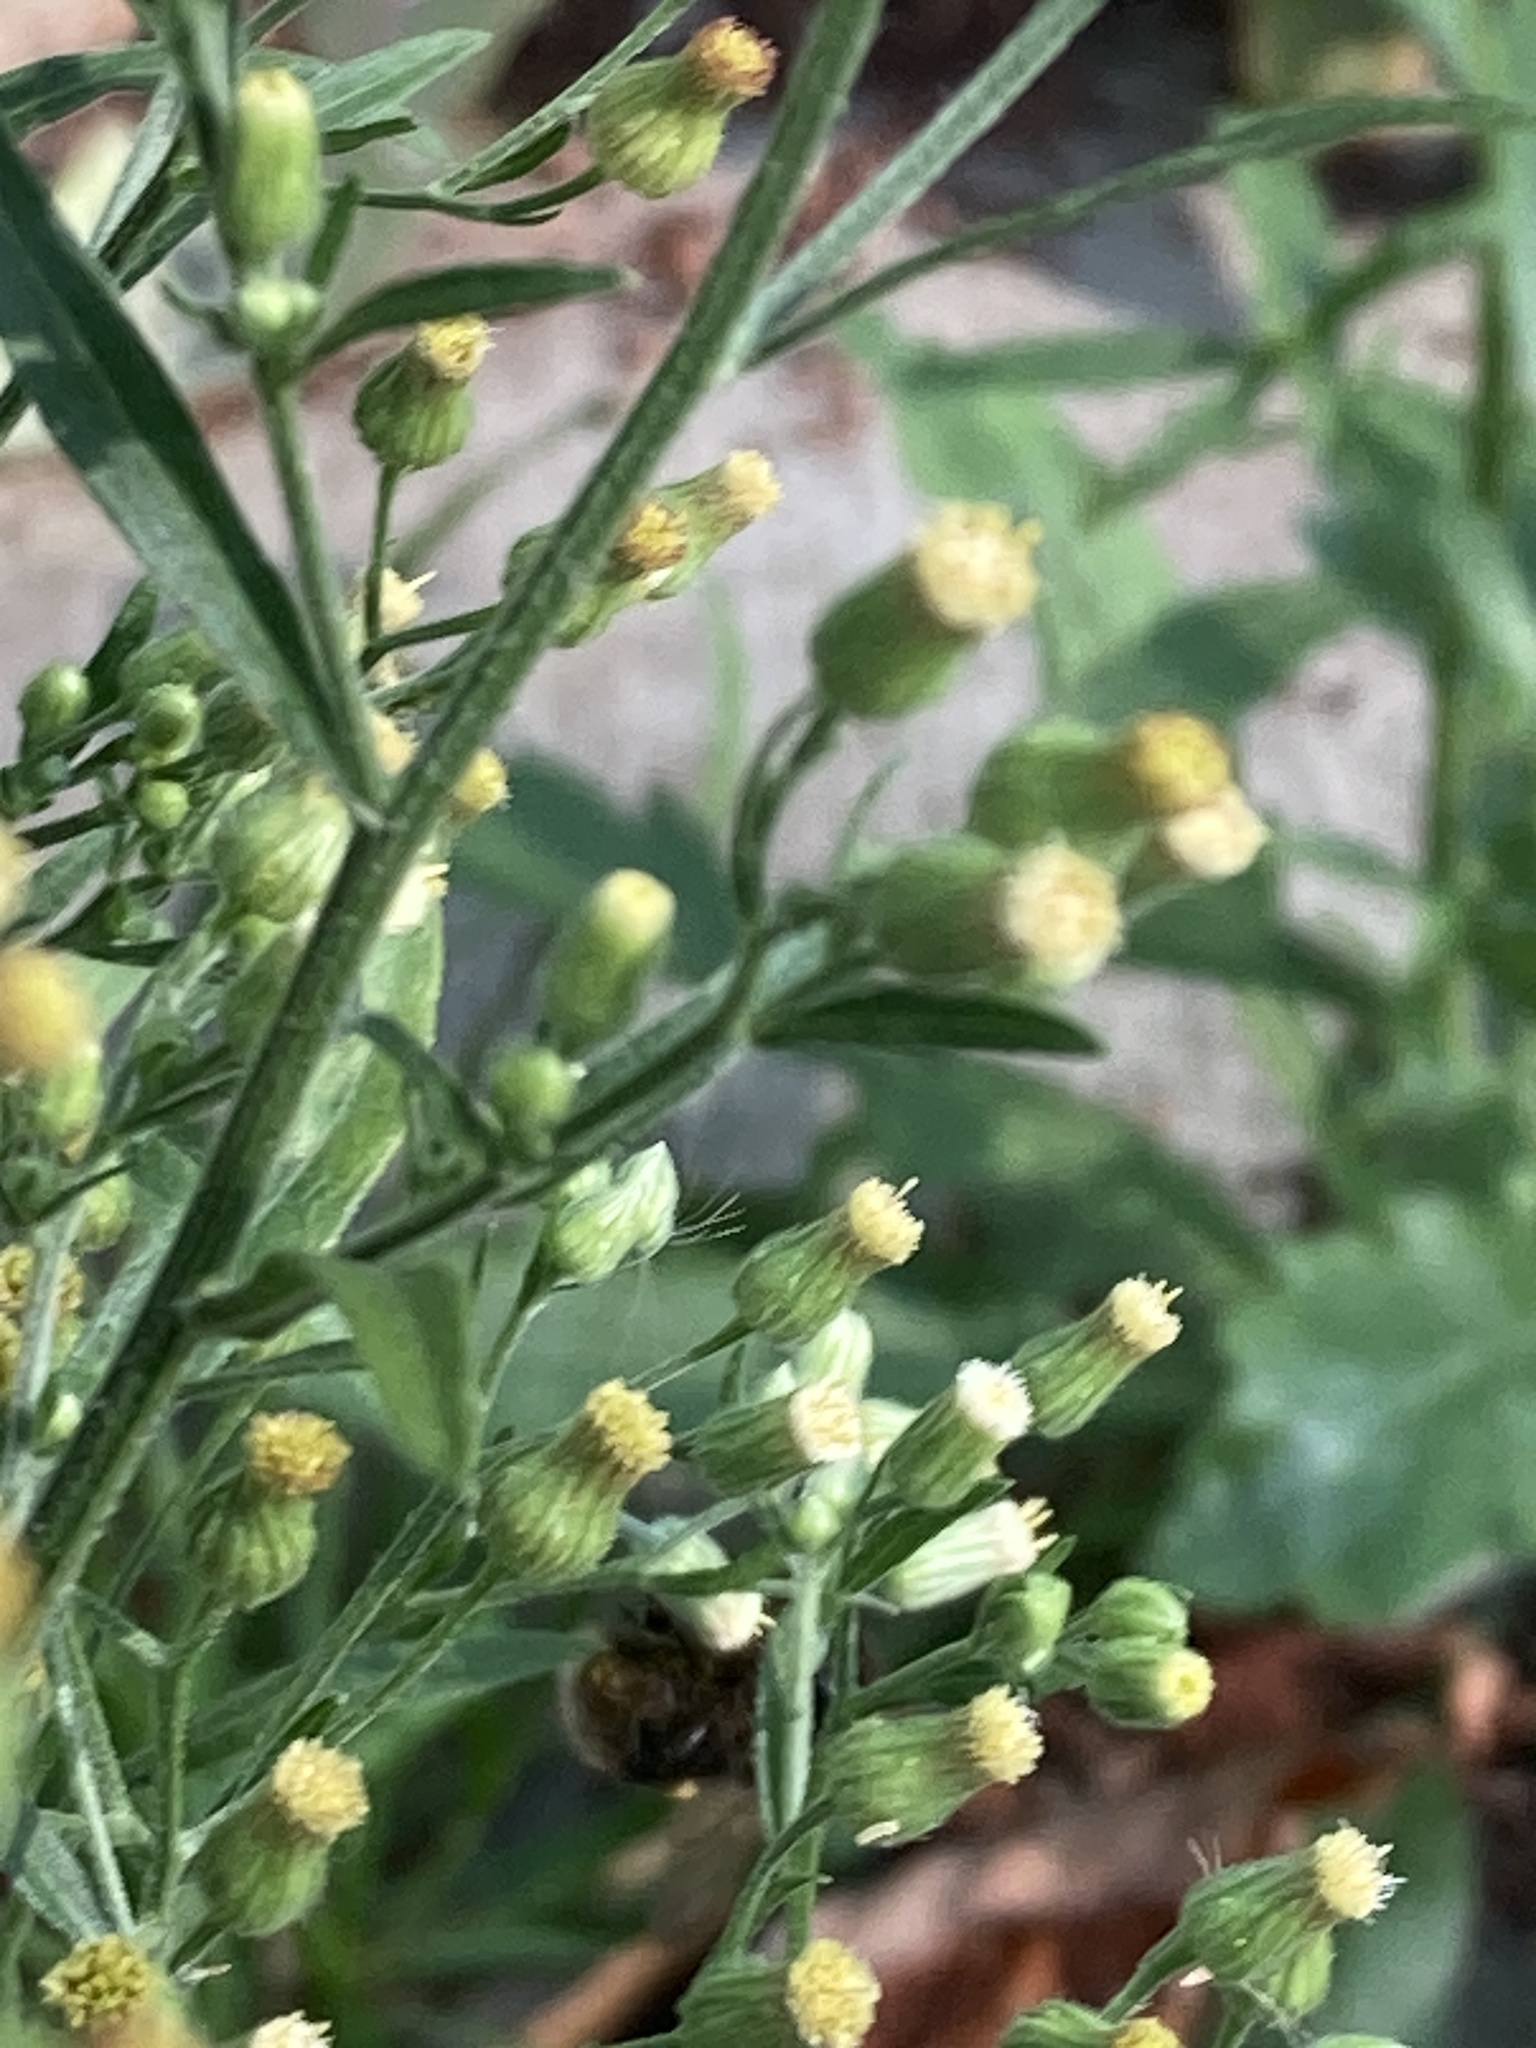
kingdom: Plantae
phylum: Tracheophyta
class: Magnoliopsida
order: Asterales
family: Asteraceae
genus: Erigeron
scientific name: Erigeron sumatrensis
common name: Daisy
